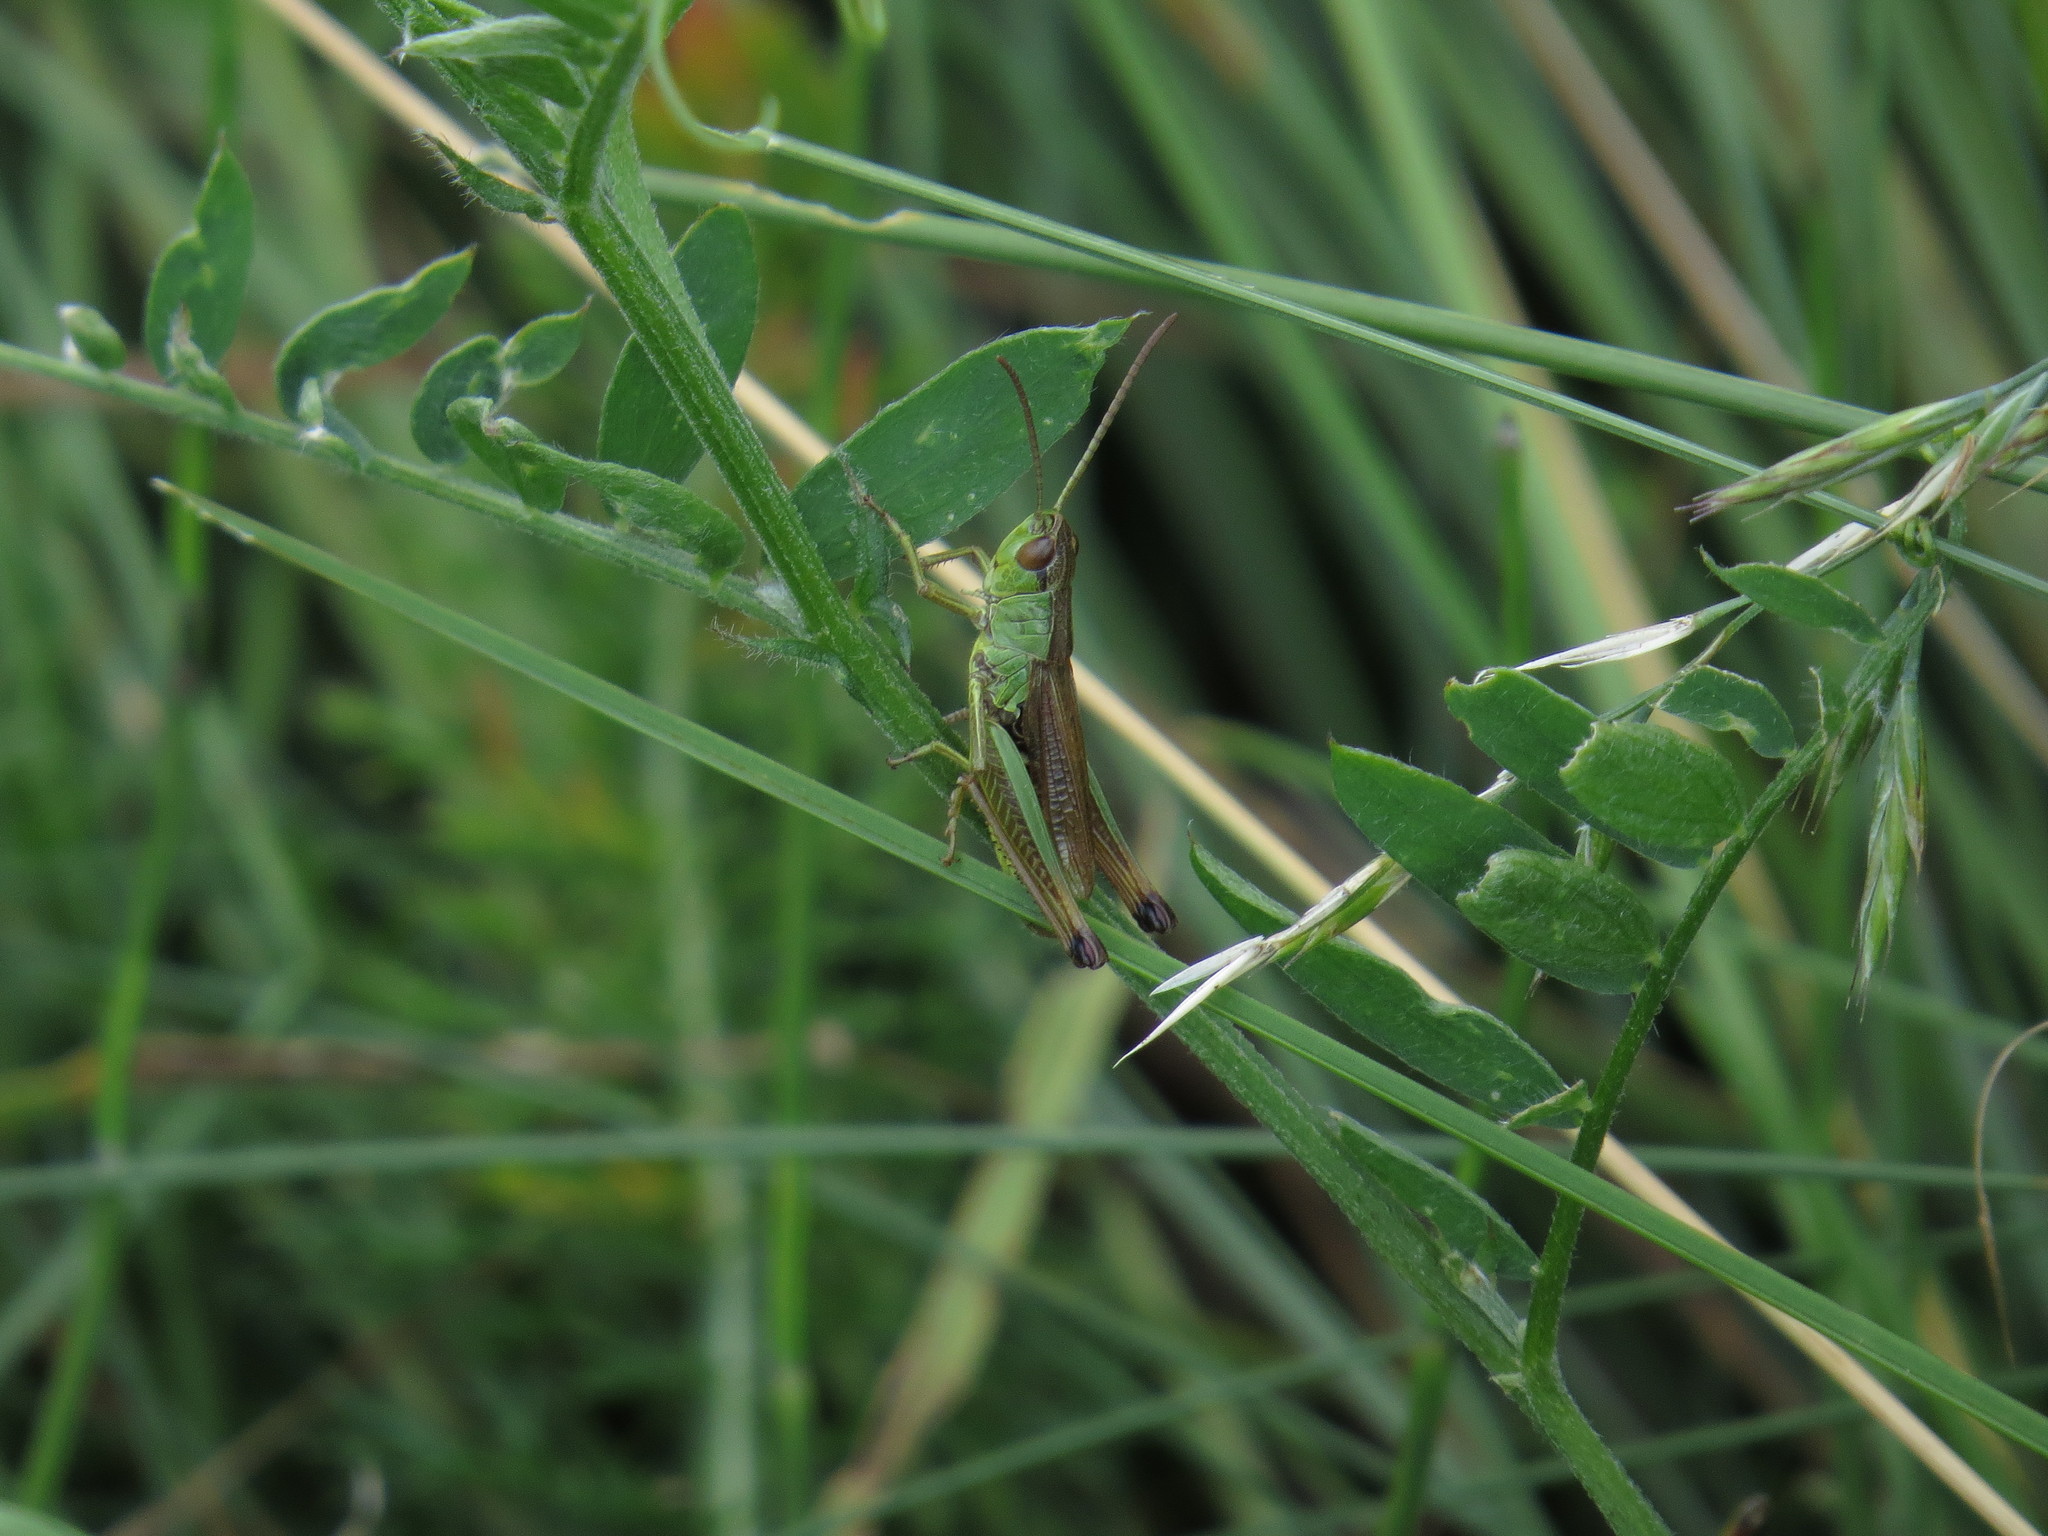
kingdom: Animalia
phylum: Arthropoda
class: Insecta
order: Orthoptera
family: Acrididae
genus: Pseudochorthippus
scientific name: Pseudochorthippus parallelus
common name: Meadow grasshopper
